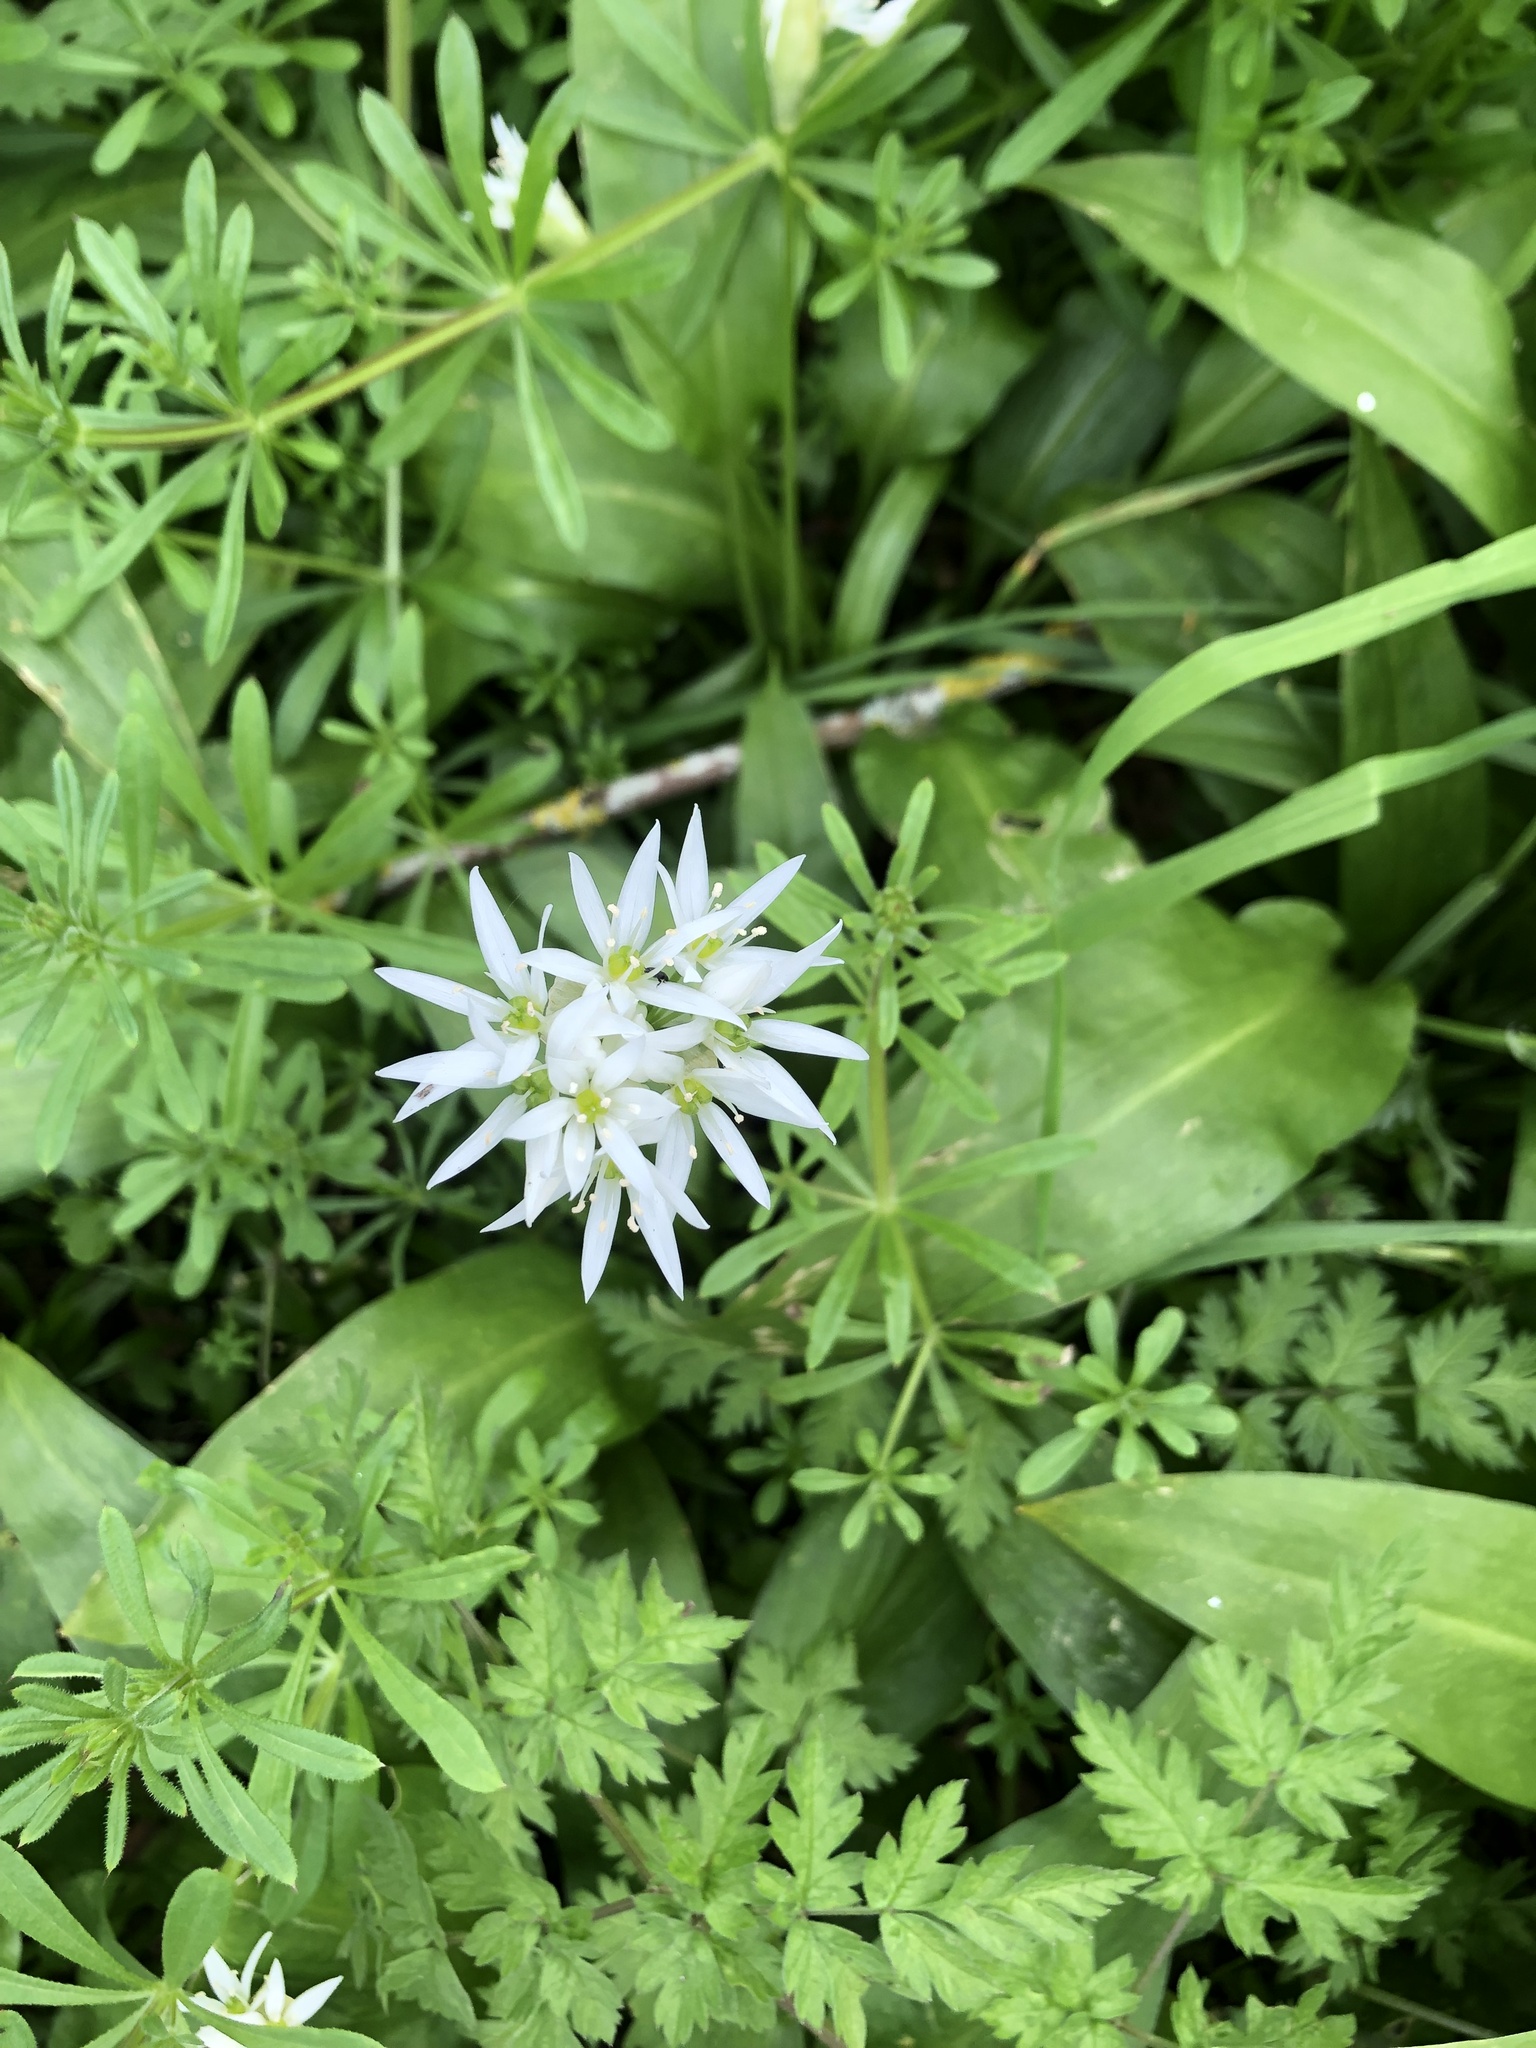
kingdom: Plantae
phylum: Tracheophyta
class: Liliopsida
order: Asparagales
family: Amaryllidaceae
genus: Allium
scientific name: Allium ursinum
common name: Ramsons
